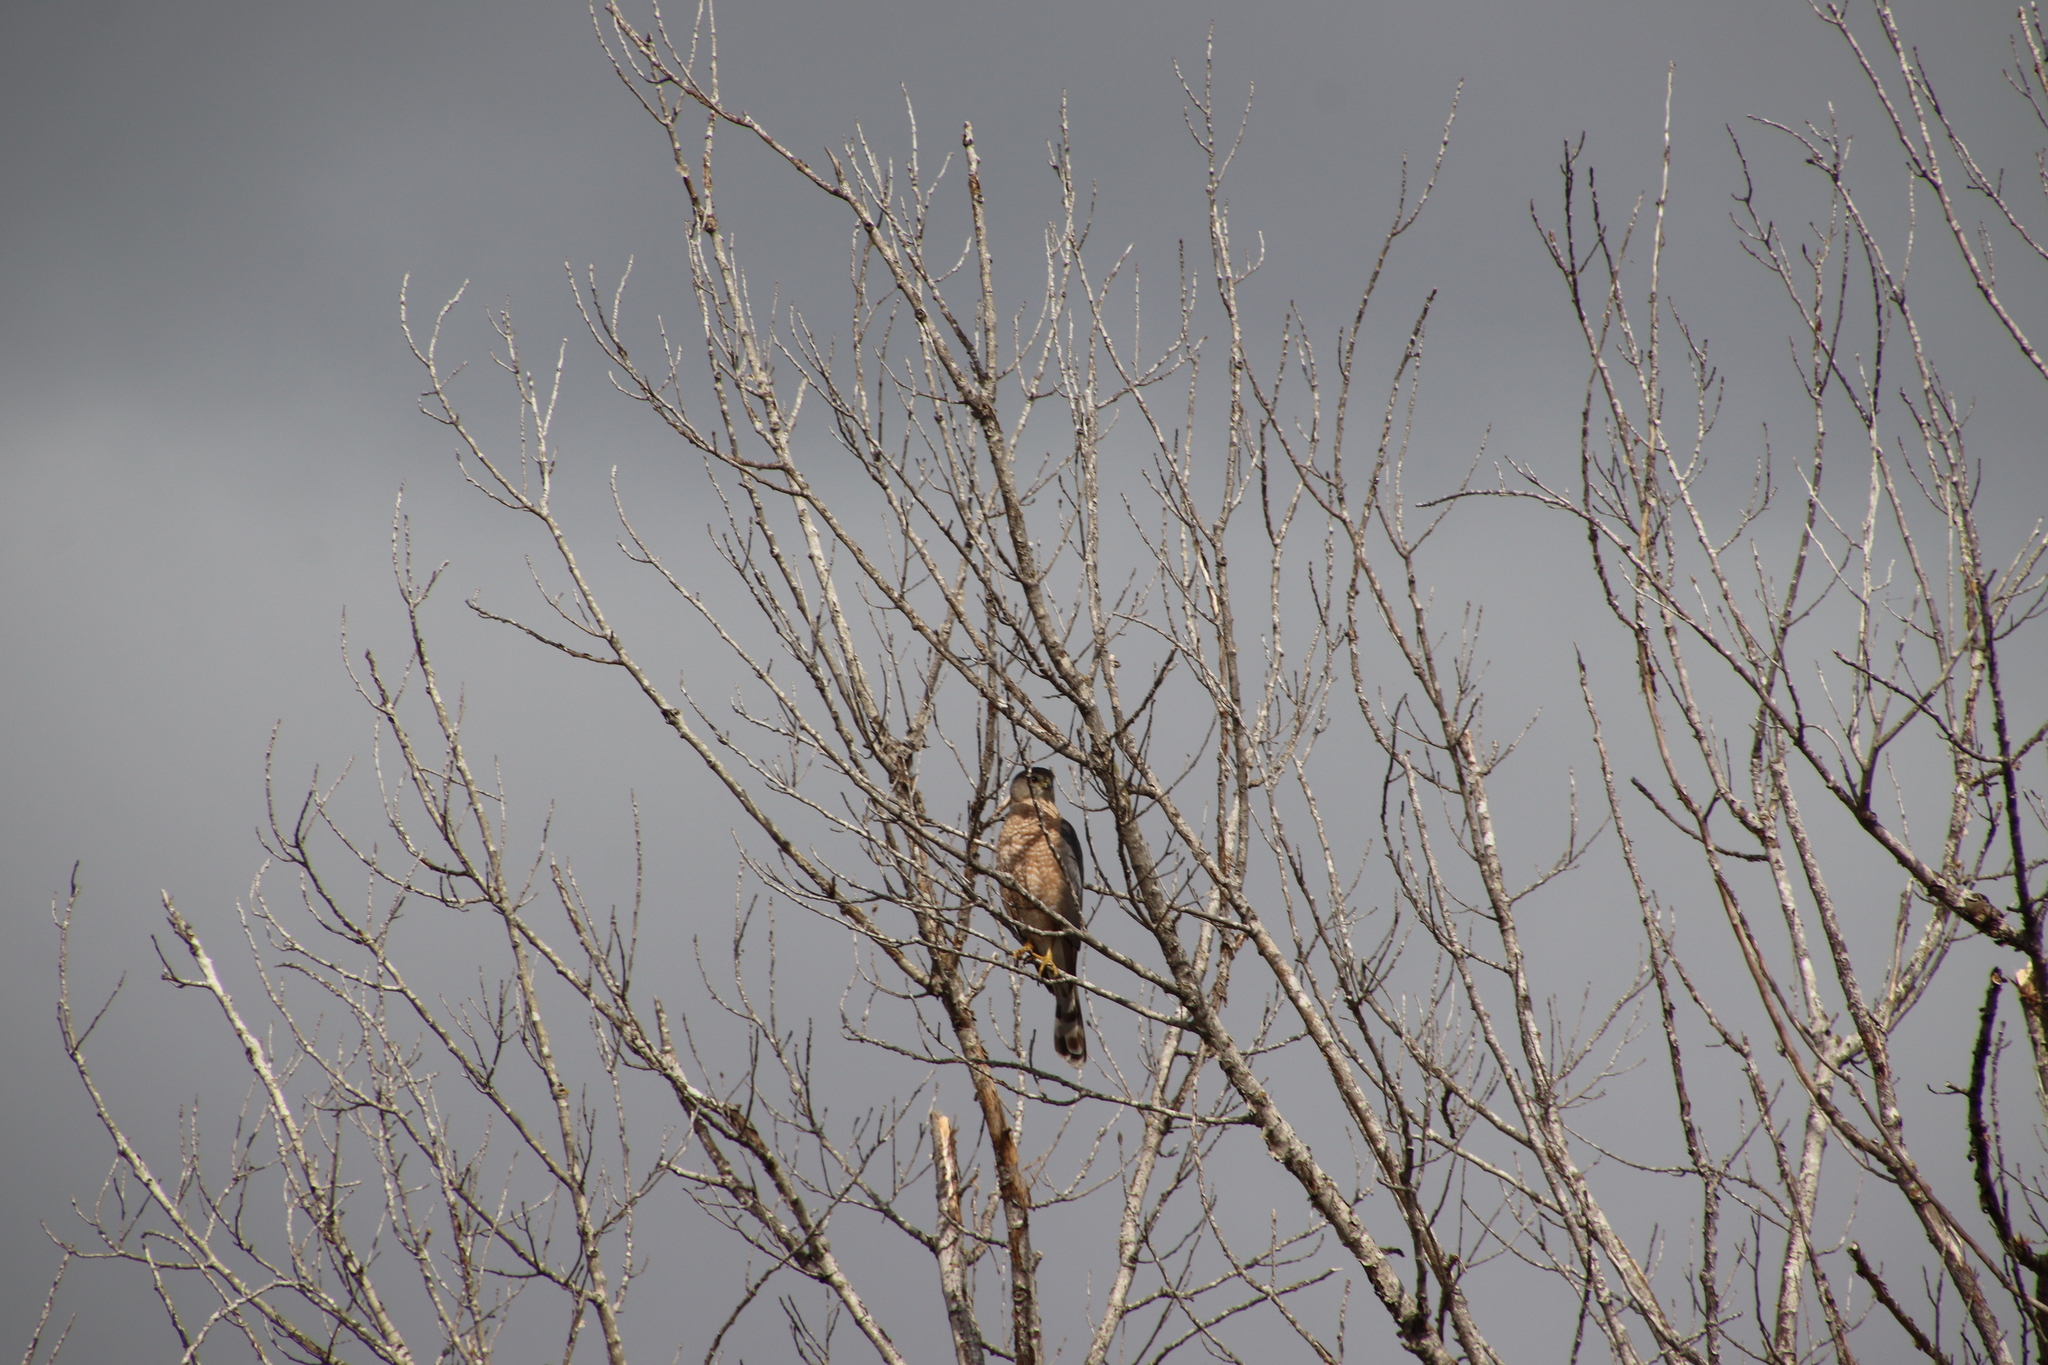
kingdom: Animalia
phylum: Chordata
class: Aves
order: Accipitriformes
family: Accipitridae
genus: Accipiter
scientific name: Accipiter cooperii
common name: Cooper's hawk
